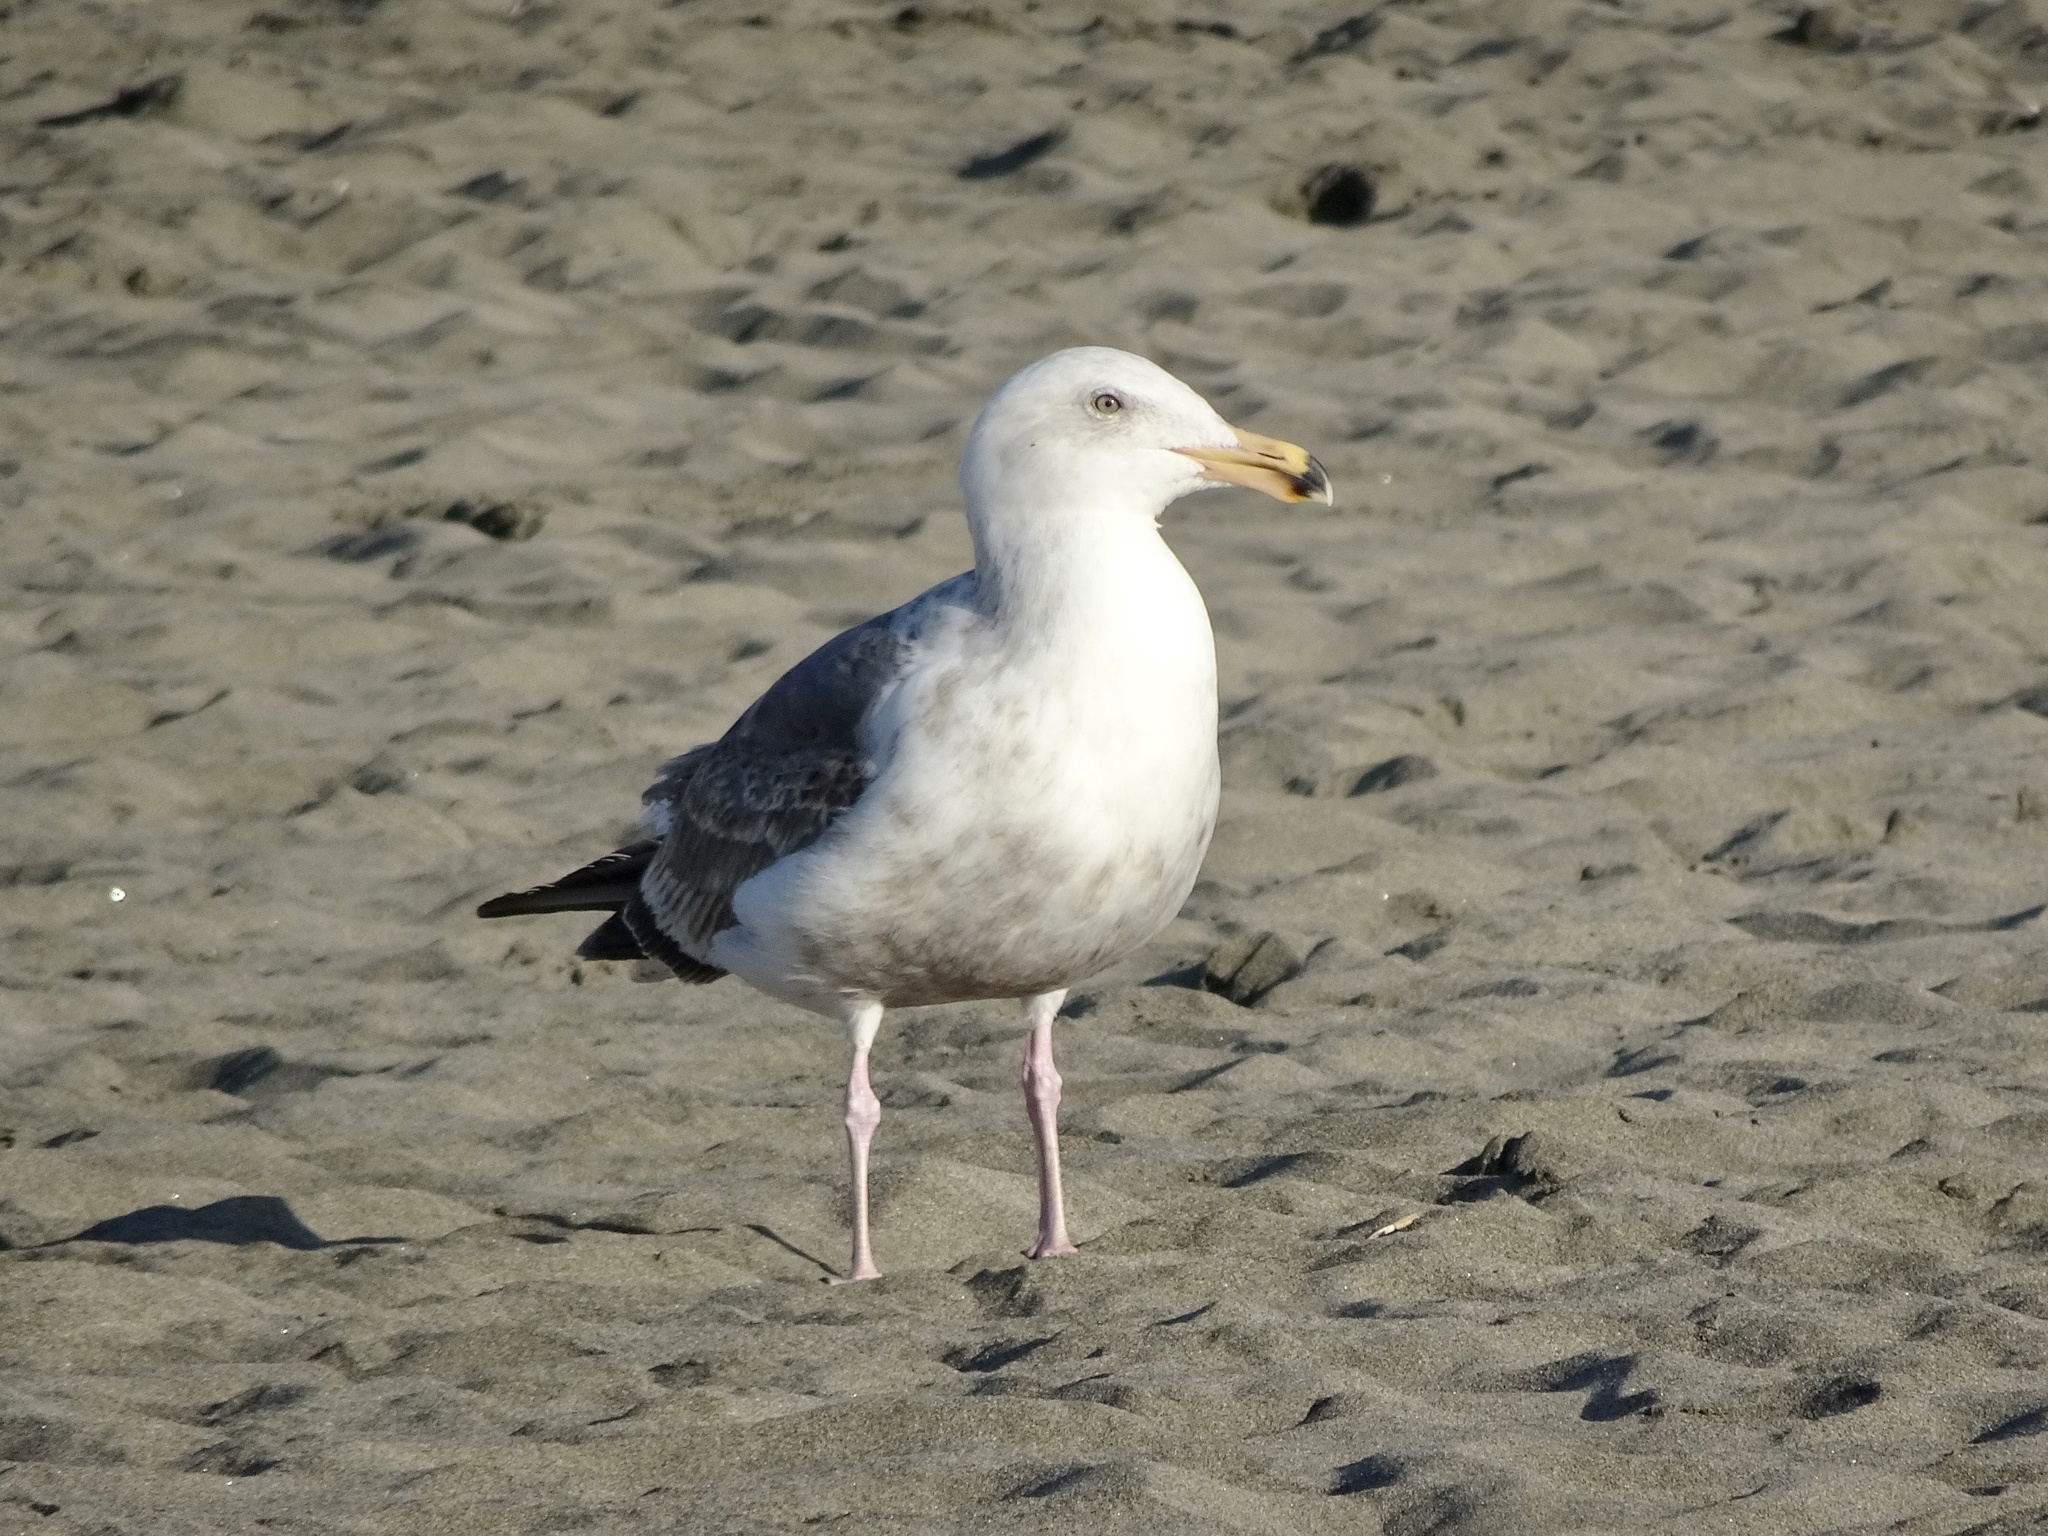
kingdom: Animalia
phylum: Chordata
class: Aves
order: Charadriiformes
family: Laridae
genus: Larus
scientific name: Larus occidentalis
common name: Western gull
